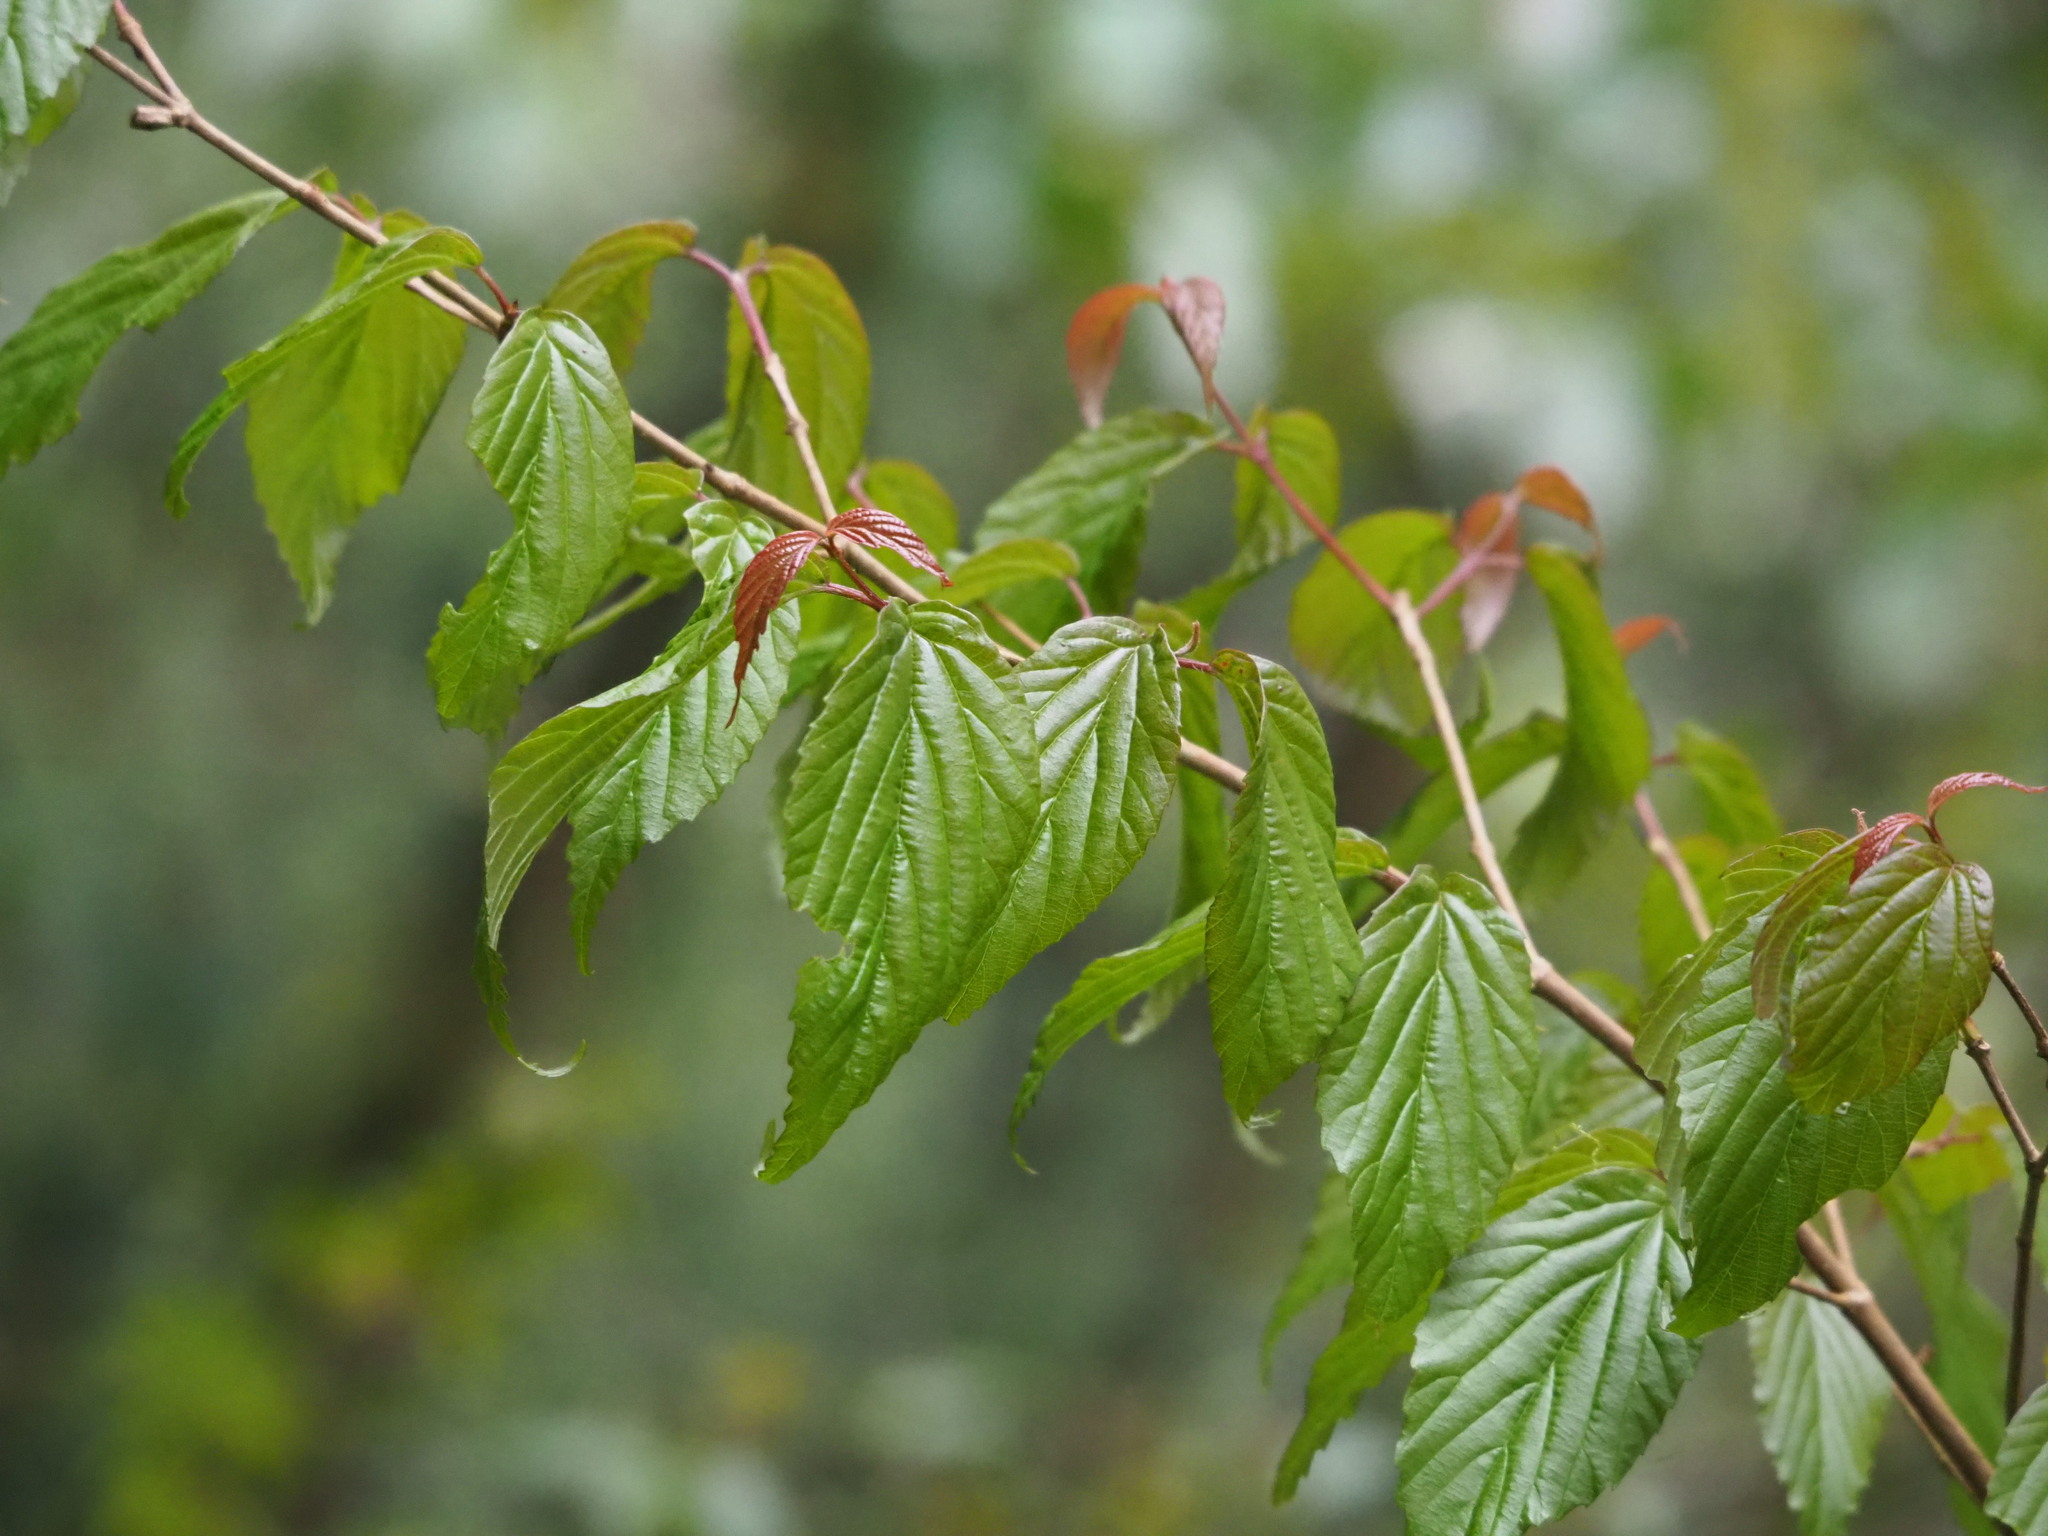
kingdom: Plantae
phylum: Tracheophyta
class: Magnoliopsida
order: Dipsacales
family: Viburnaceae
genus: Viburnum
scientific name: Viburnum luzonicum
